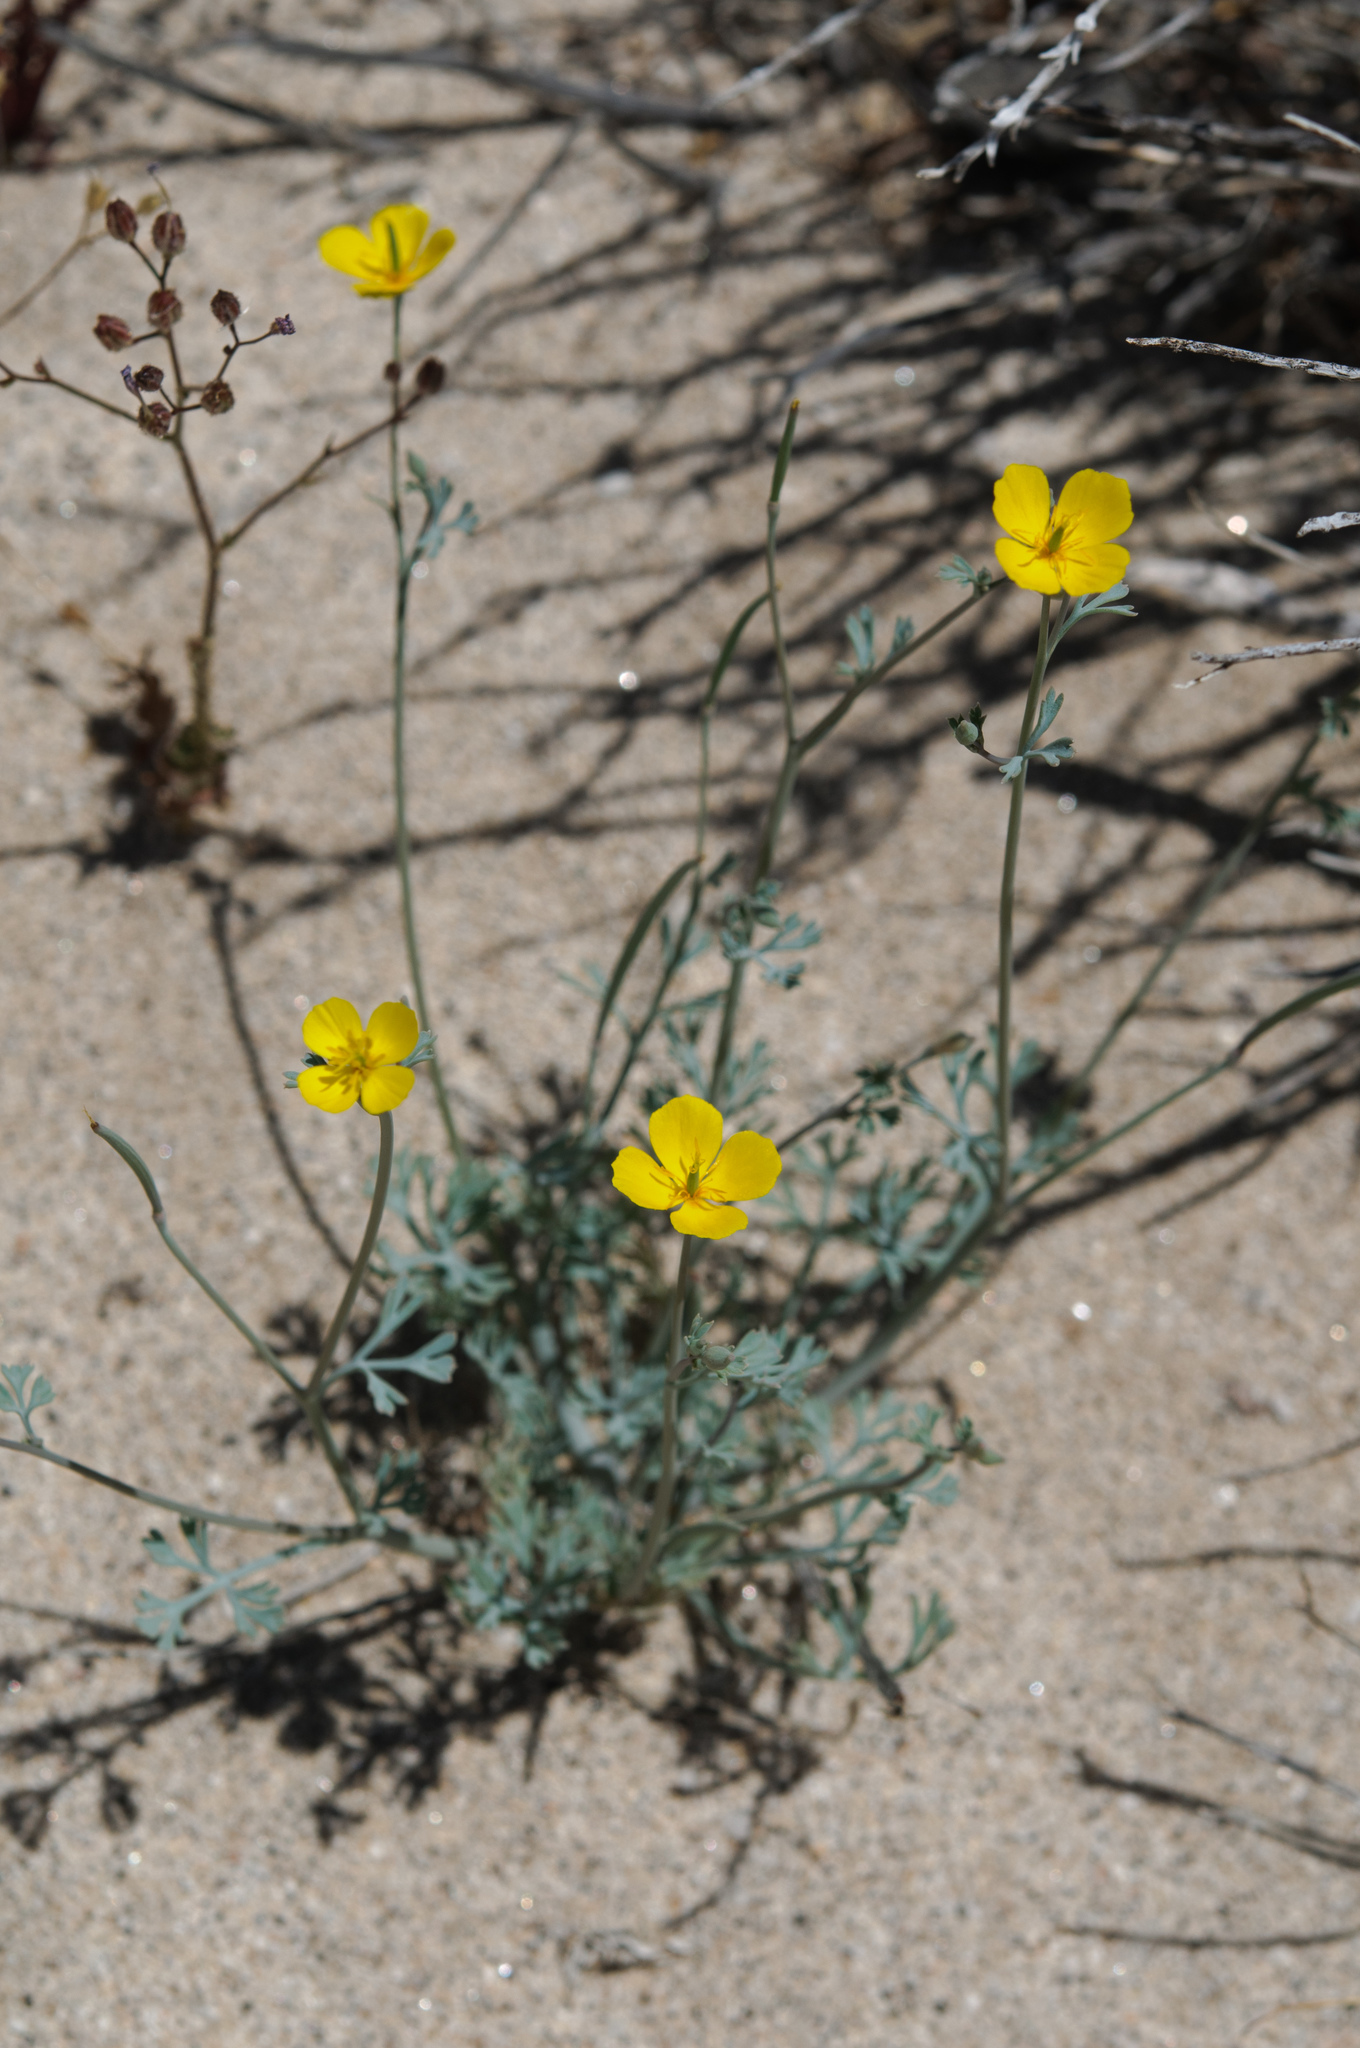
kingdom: Plantae
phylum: Tracheophyta
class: Magnoliopsida
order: Ranunculales
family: Papaveraceae
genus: Eschscholzia
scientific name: Eschscholzia minutiflora
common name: Small-flower california-poppy
